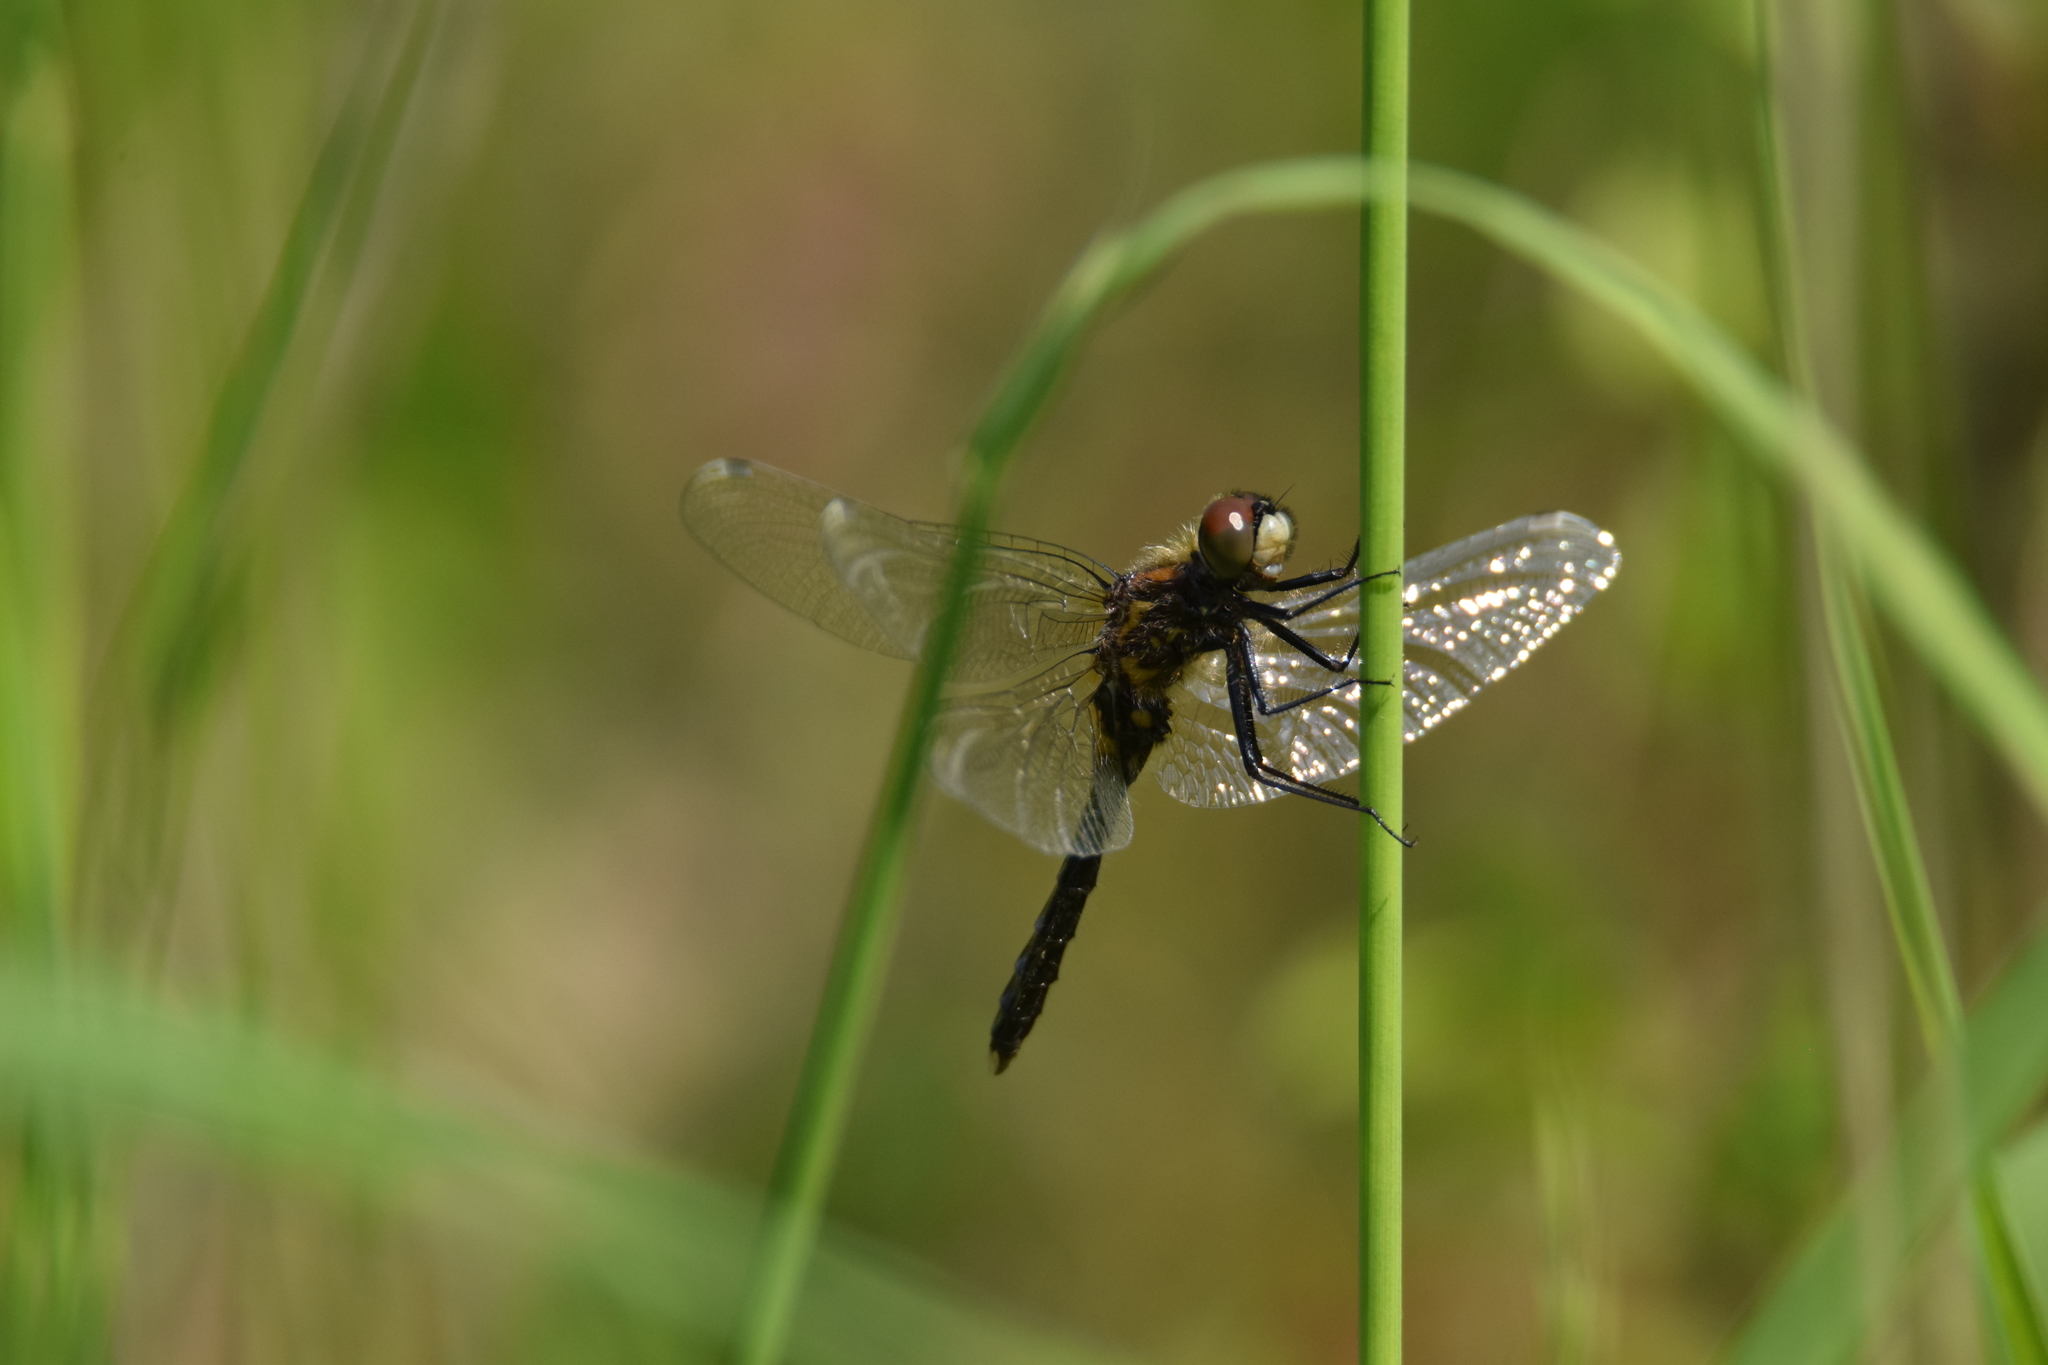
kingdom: Animalia
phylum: Arthropoda
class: Insecta
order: Odonata
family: Libellulidae
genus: Leucorrhinia
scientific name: Leucorrhinia caudalis
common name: Lilypad whiteface
